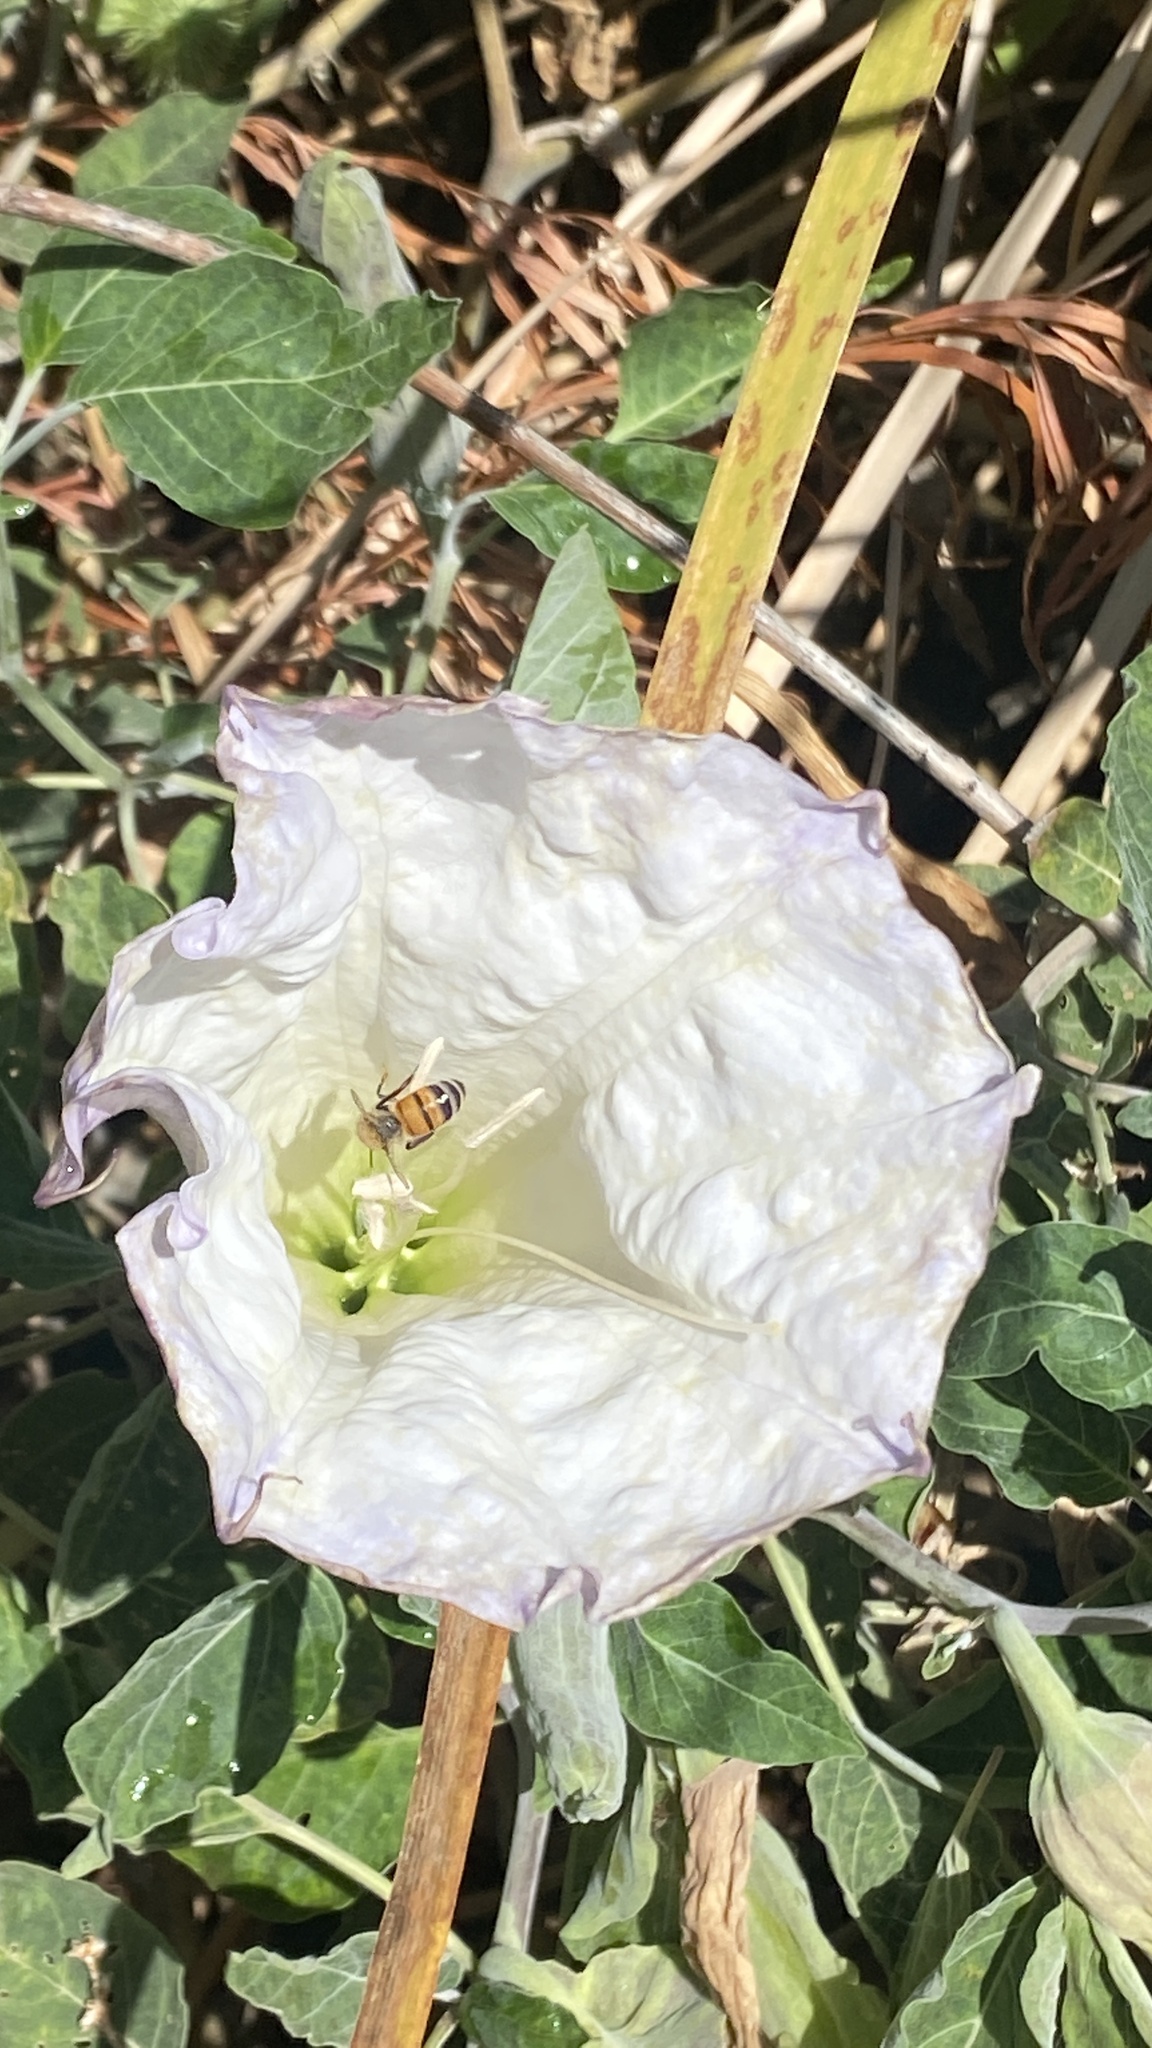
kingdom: Plantae
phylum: Tracheophyta
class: Magnoliopsida
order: Solanales
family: Solanaceae
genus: Datura
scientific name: Datura wrightii
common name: Sacred thorn-apple
